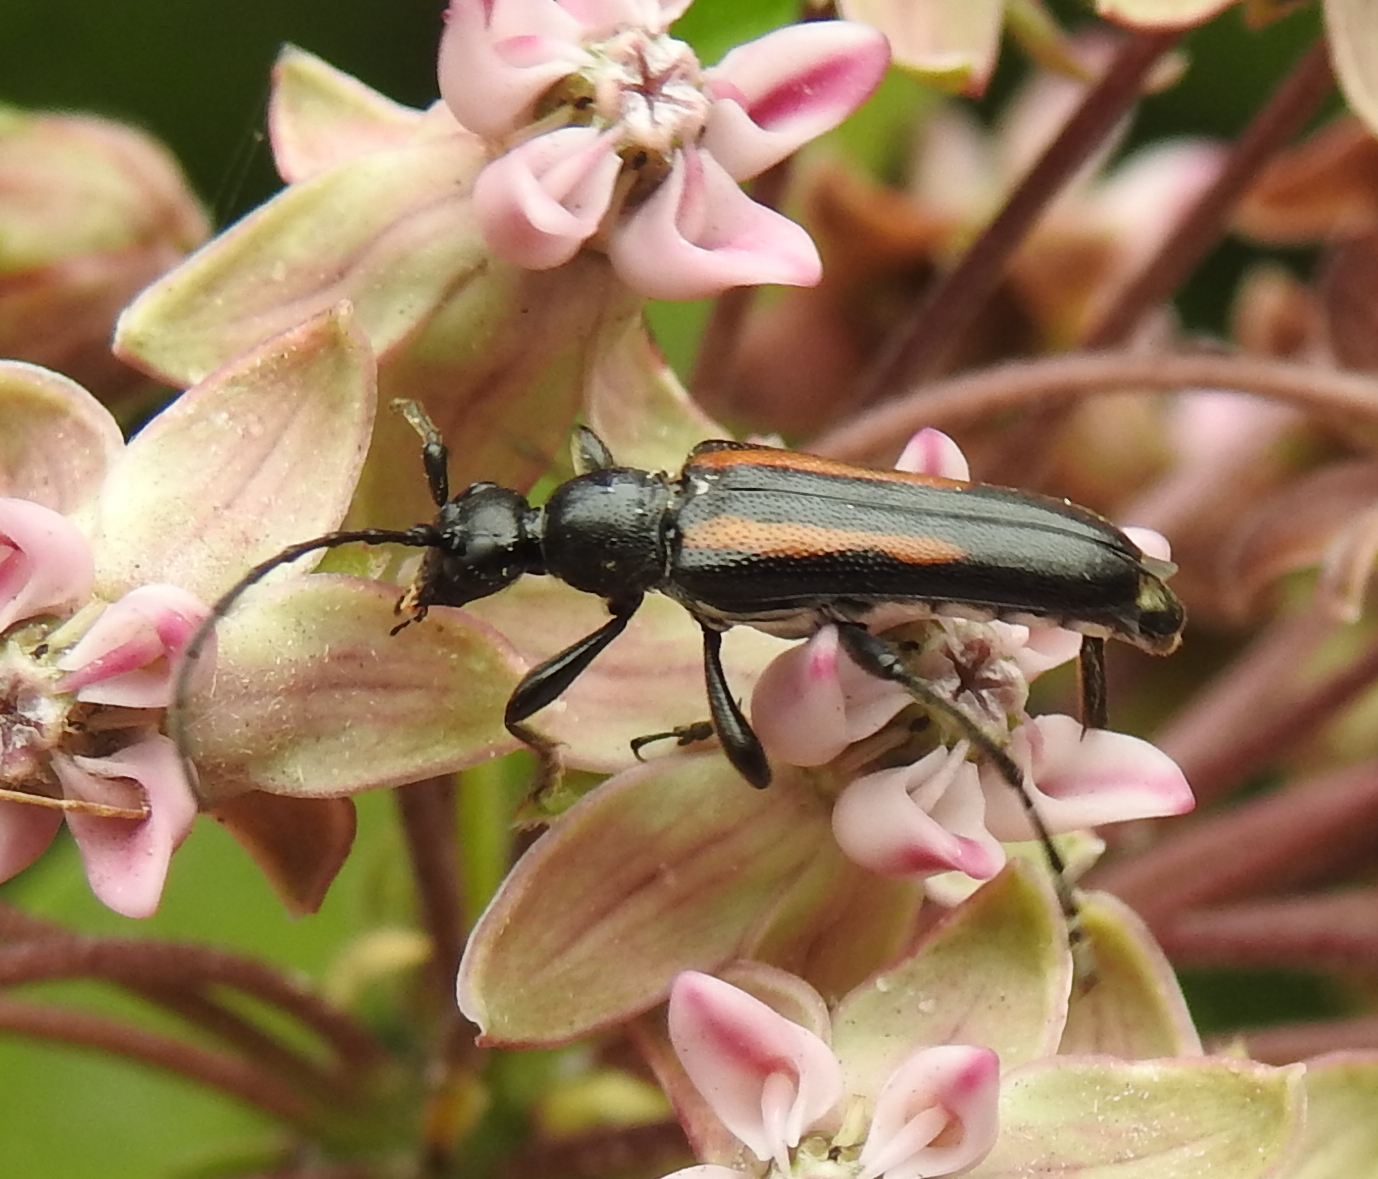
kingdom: Animalia
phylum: Arthropoda
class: Insecta
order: Coleoptera
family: Cerambycidae
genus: Strangalepta
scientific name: Strangalepta abbreviata
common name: Strangalepta flower longhorn beetle
